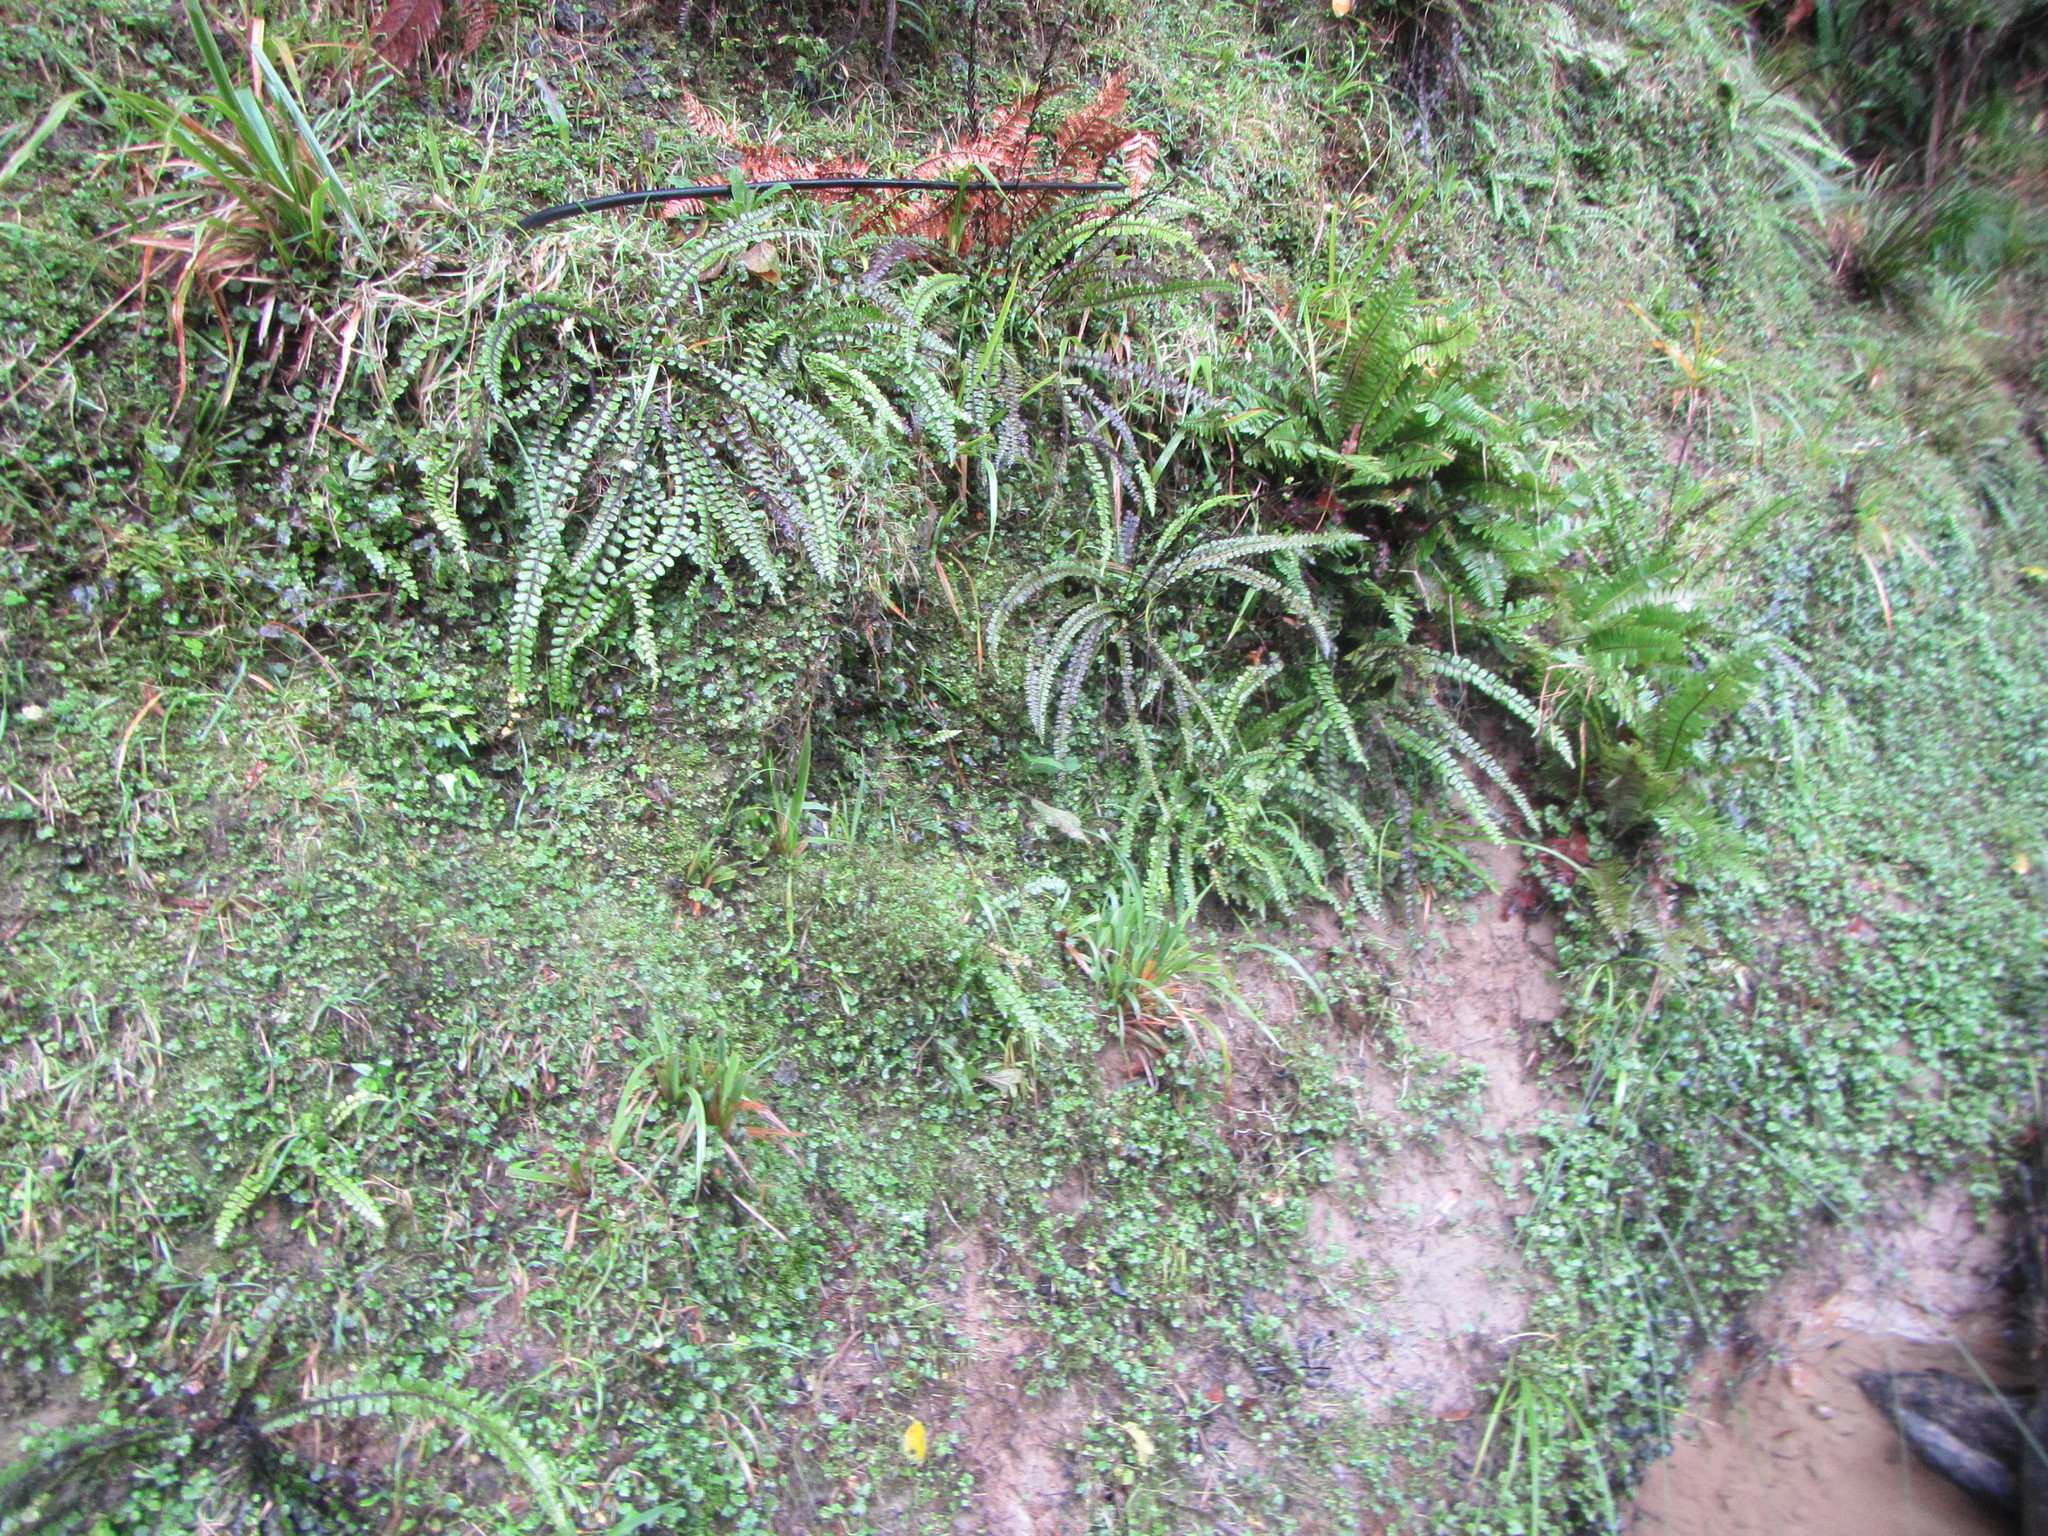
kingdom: Plantae
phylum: Tracheophyta
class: Polypodiopsida
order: Polypodiales
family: Blechnaceae
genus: Cranfillia
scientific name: Cranfillia fluviatilis
